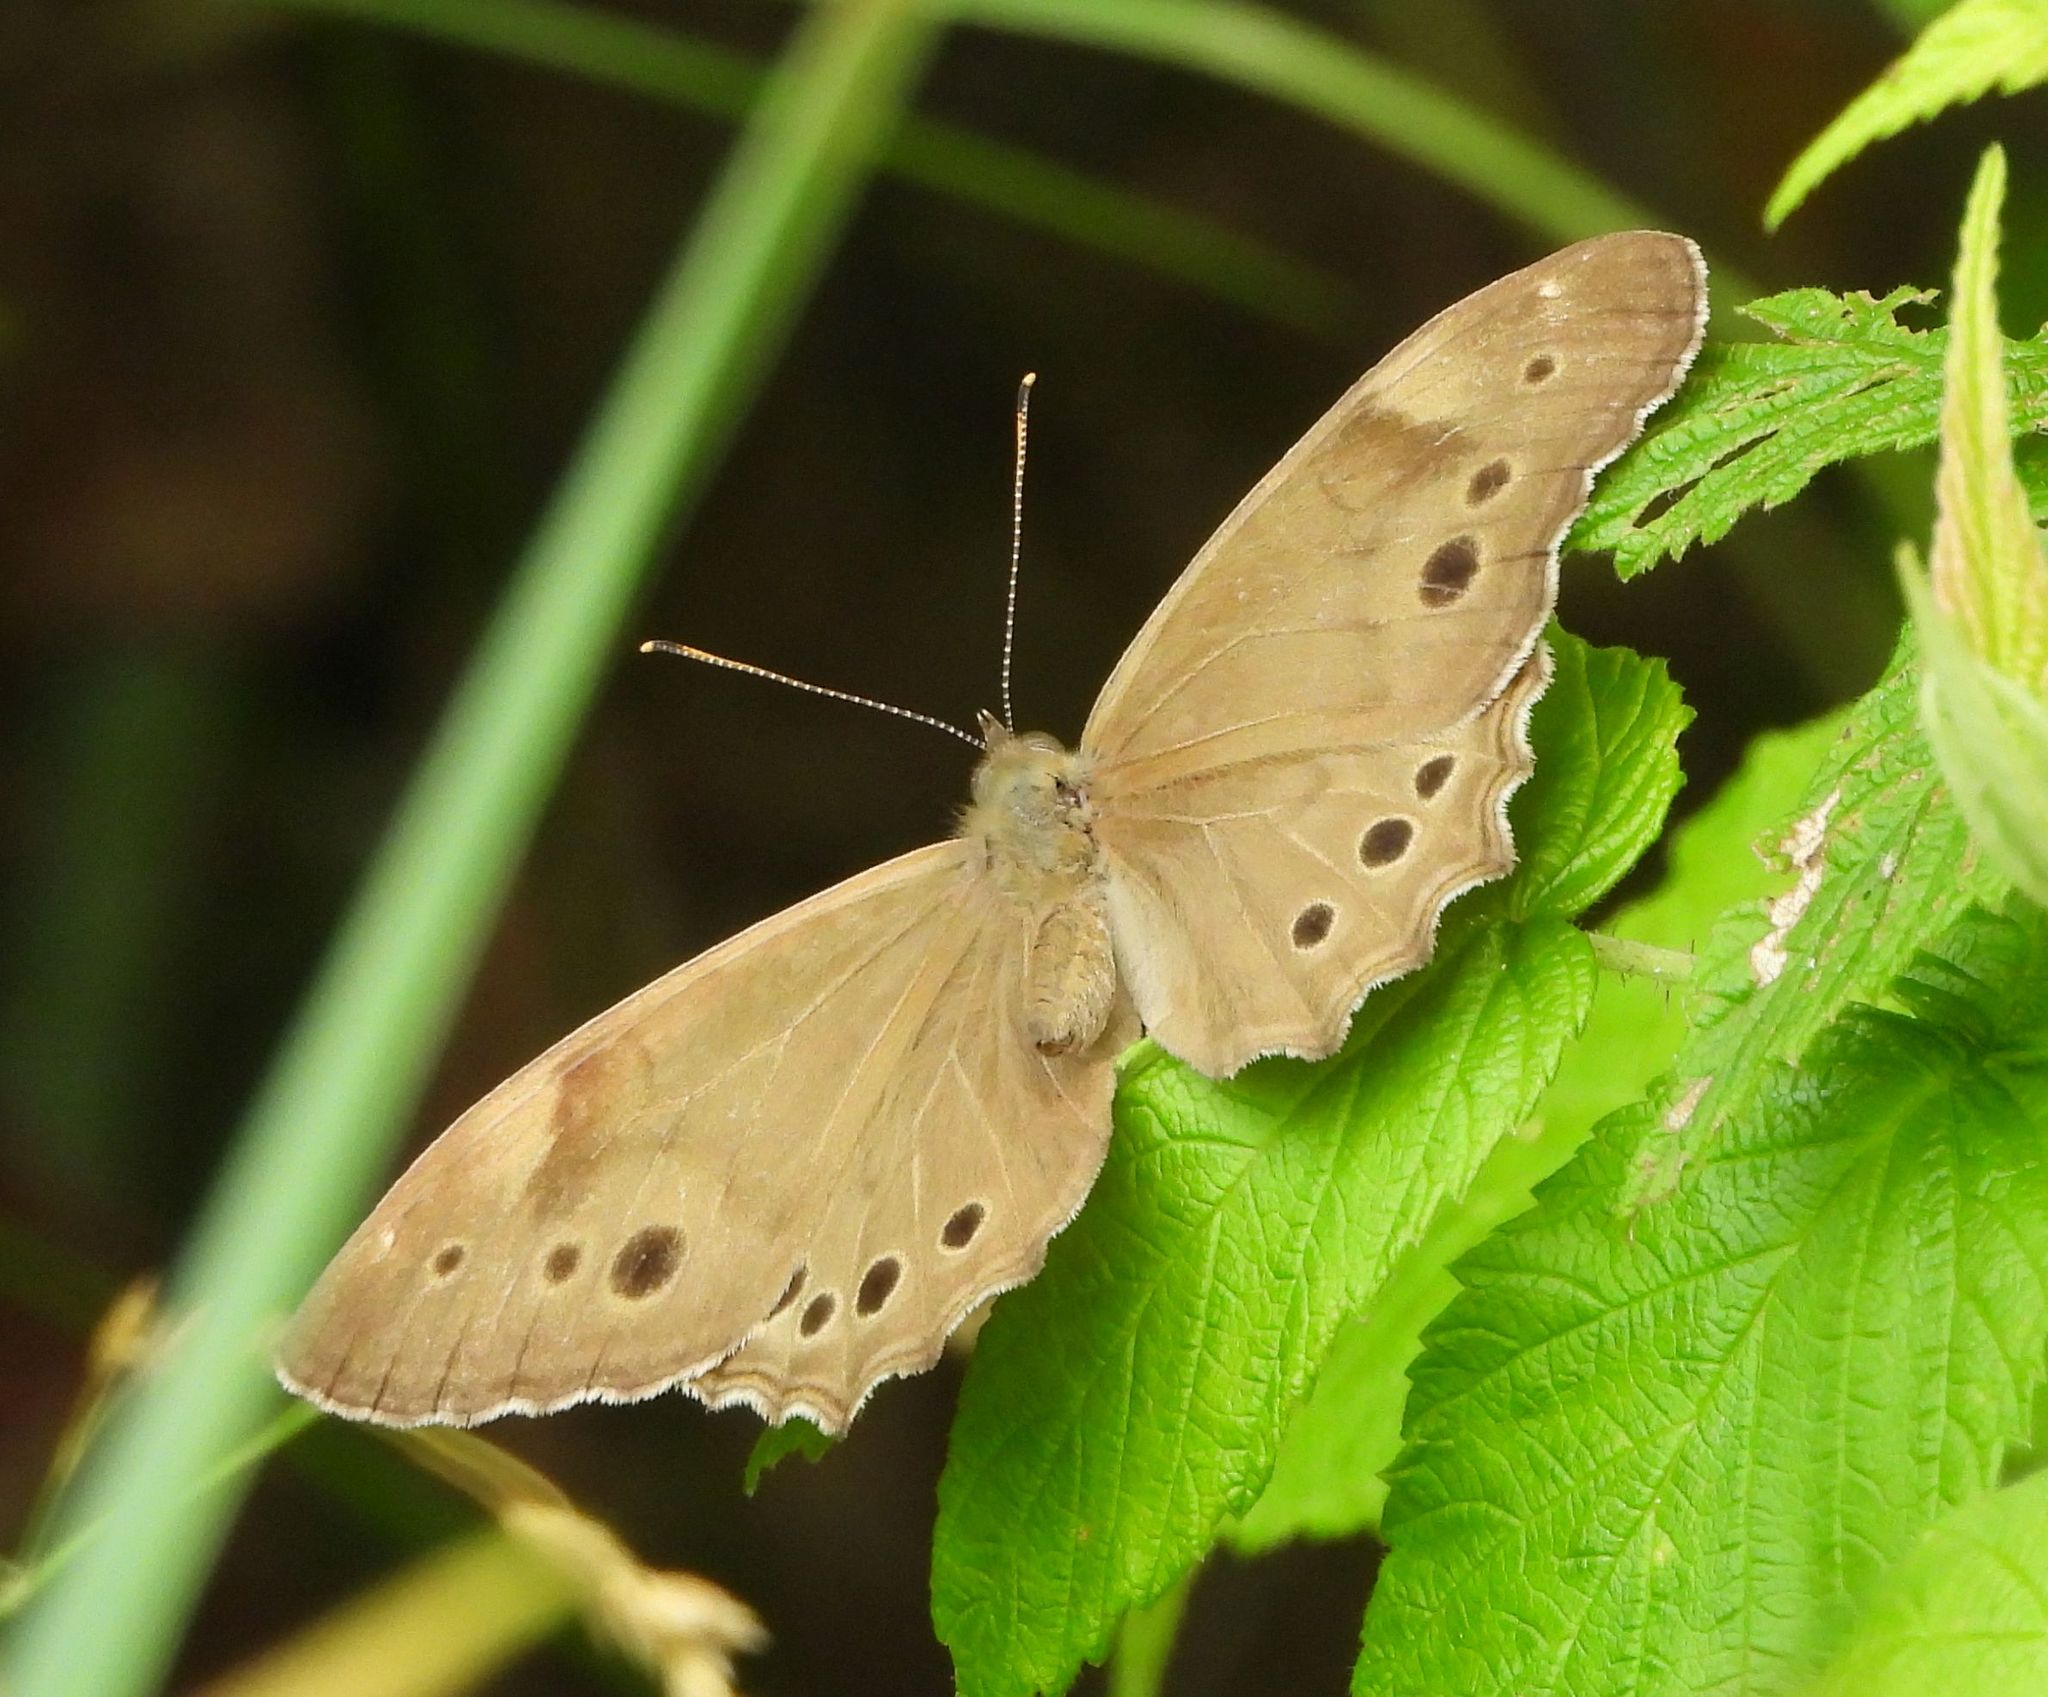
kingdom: Animalia
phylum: Arthropoda
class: Insecta
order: Lepidoptera
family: Nymphalidae
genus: Lethe
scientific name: Lethe anthedon
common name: Northern pearly-eye
